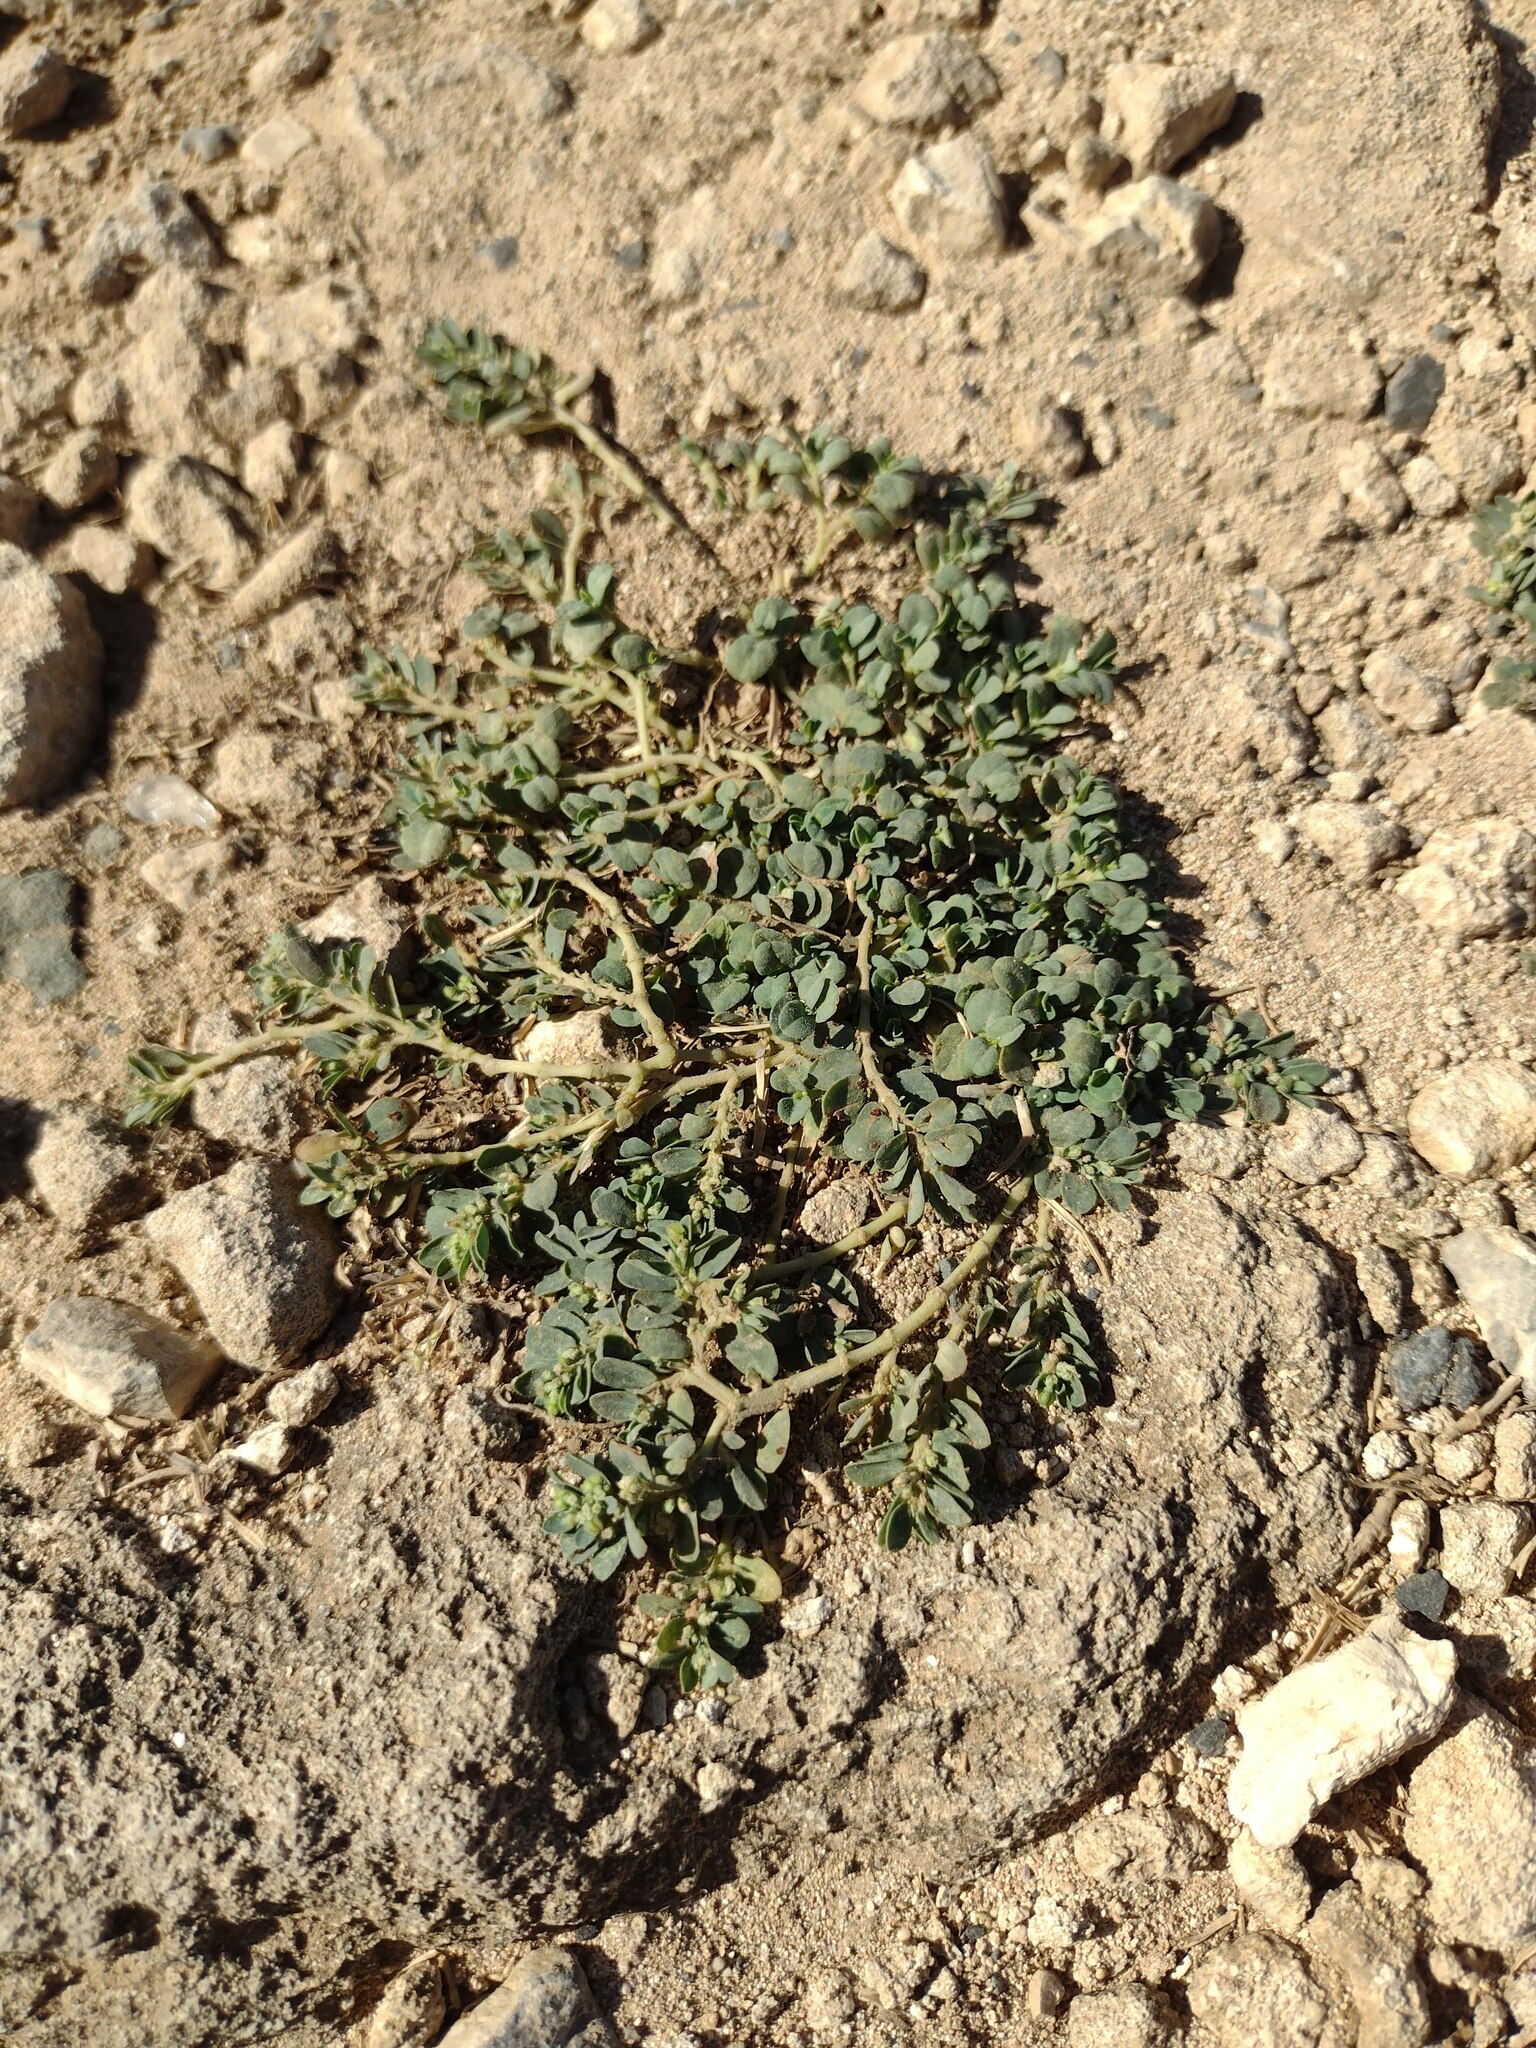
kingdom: Plantae
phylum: Tracheophyta
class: Magnoliopsida
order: Malpighiales
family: Euphorbiaceae
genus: Euphorbia
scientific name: Euphorbia prostrata
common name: Prostrate sandmat
